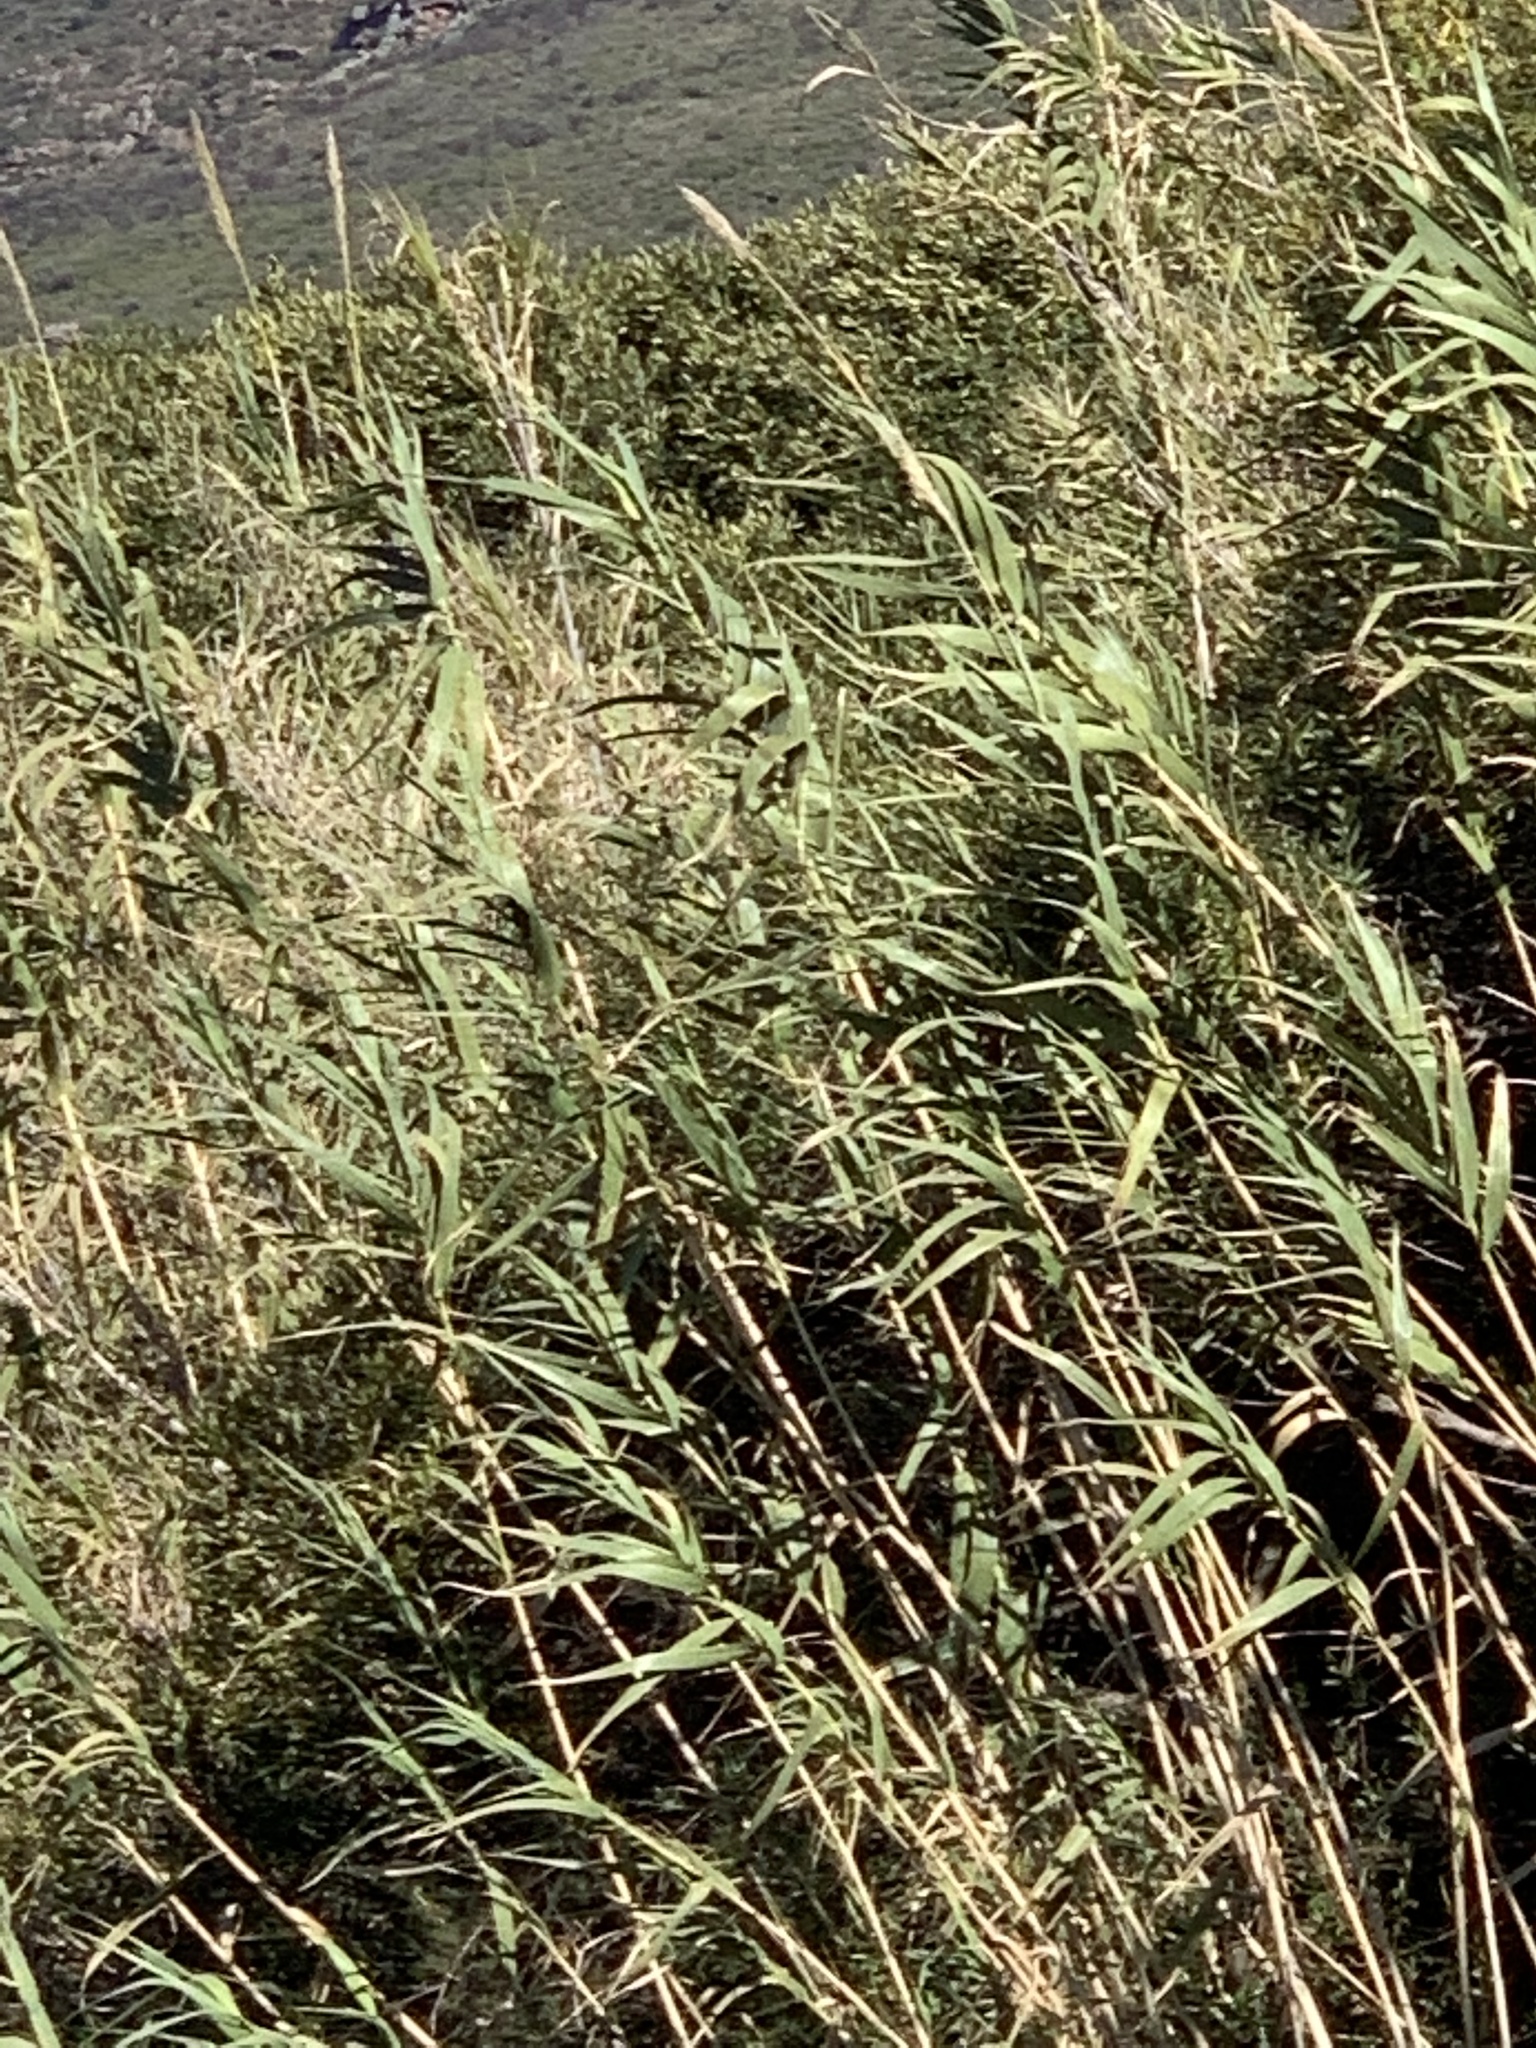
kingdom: Plantae
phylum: Tracheophyta
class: Liliopsida
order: Poales
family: Poaceae
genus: Arundo
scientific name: Arundo donax
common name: Giant reed
